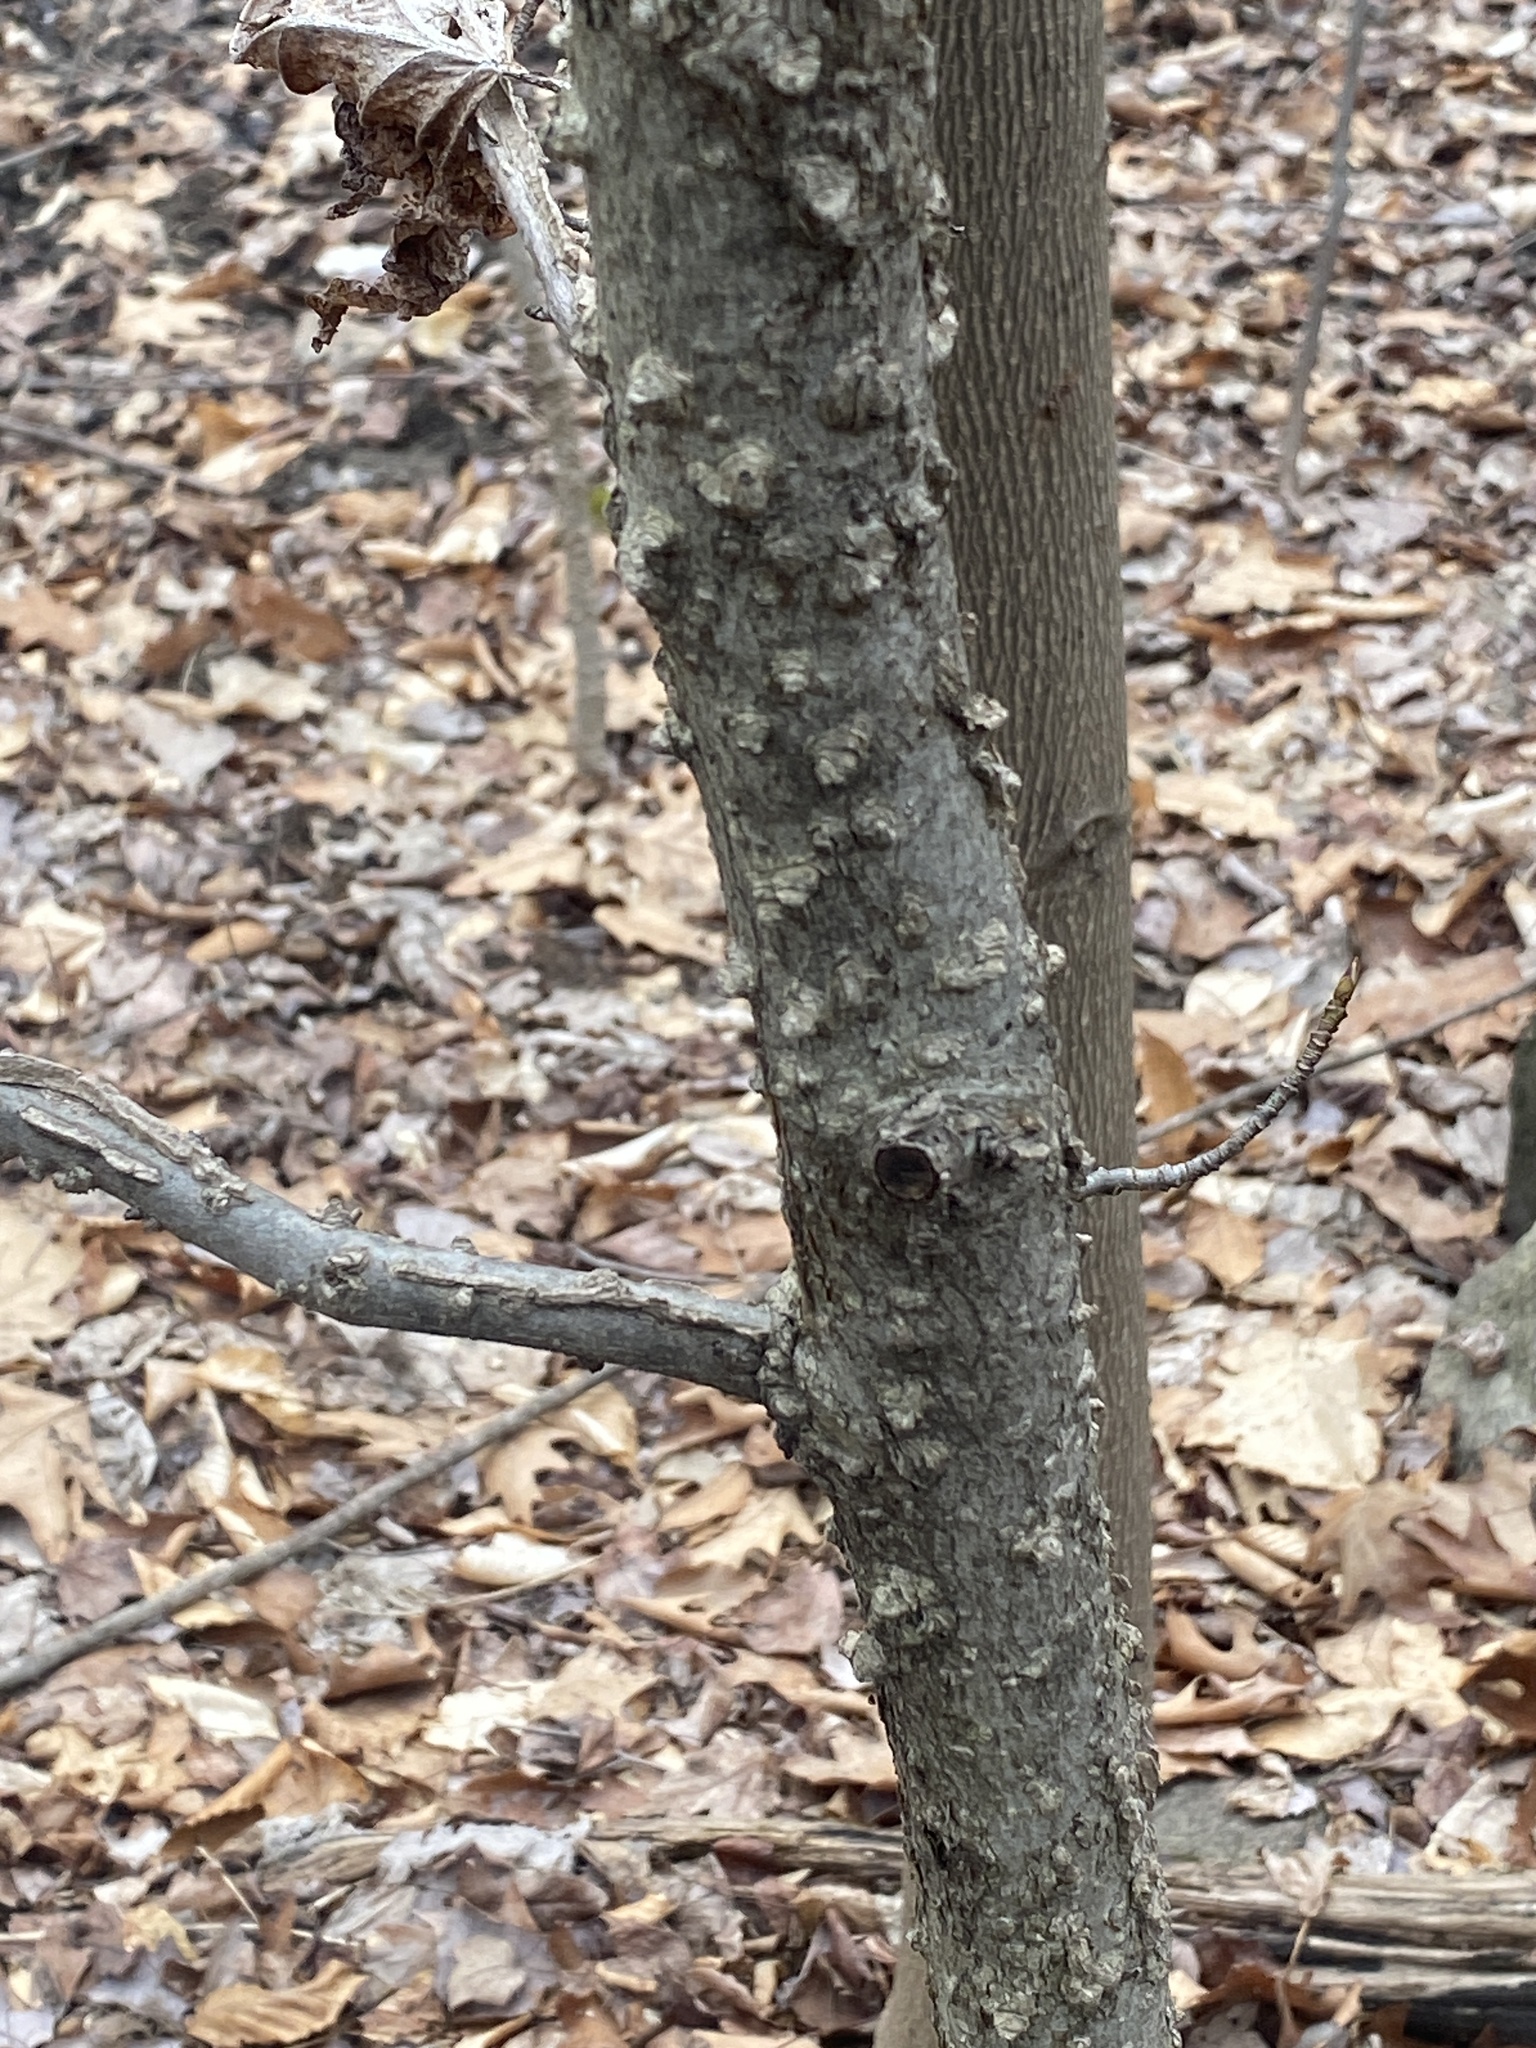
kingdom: Plantae
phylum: Tracheophyta
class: Magnoliopsida
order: Saxifragales
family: Altingiaceae
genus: Liquidambar
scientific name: Liquidambar styraciflua
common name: Sweet gum
